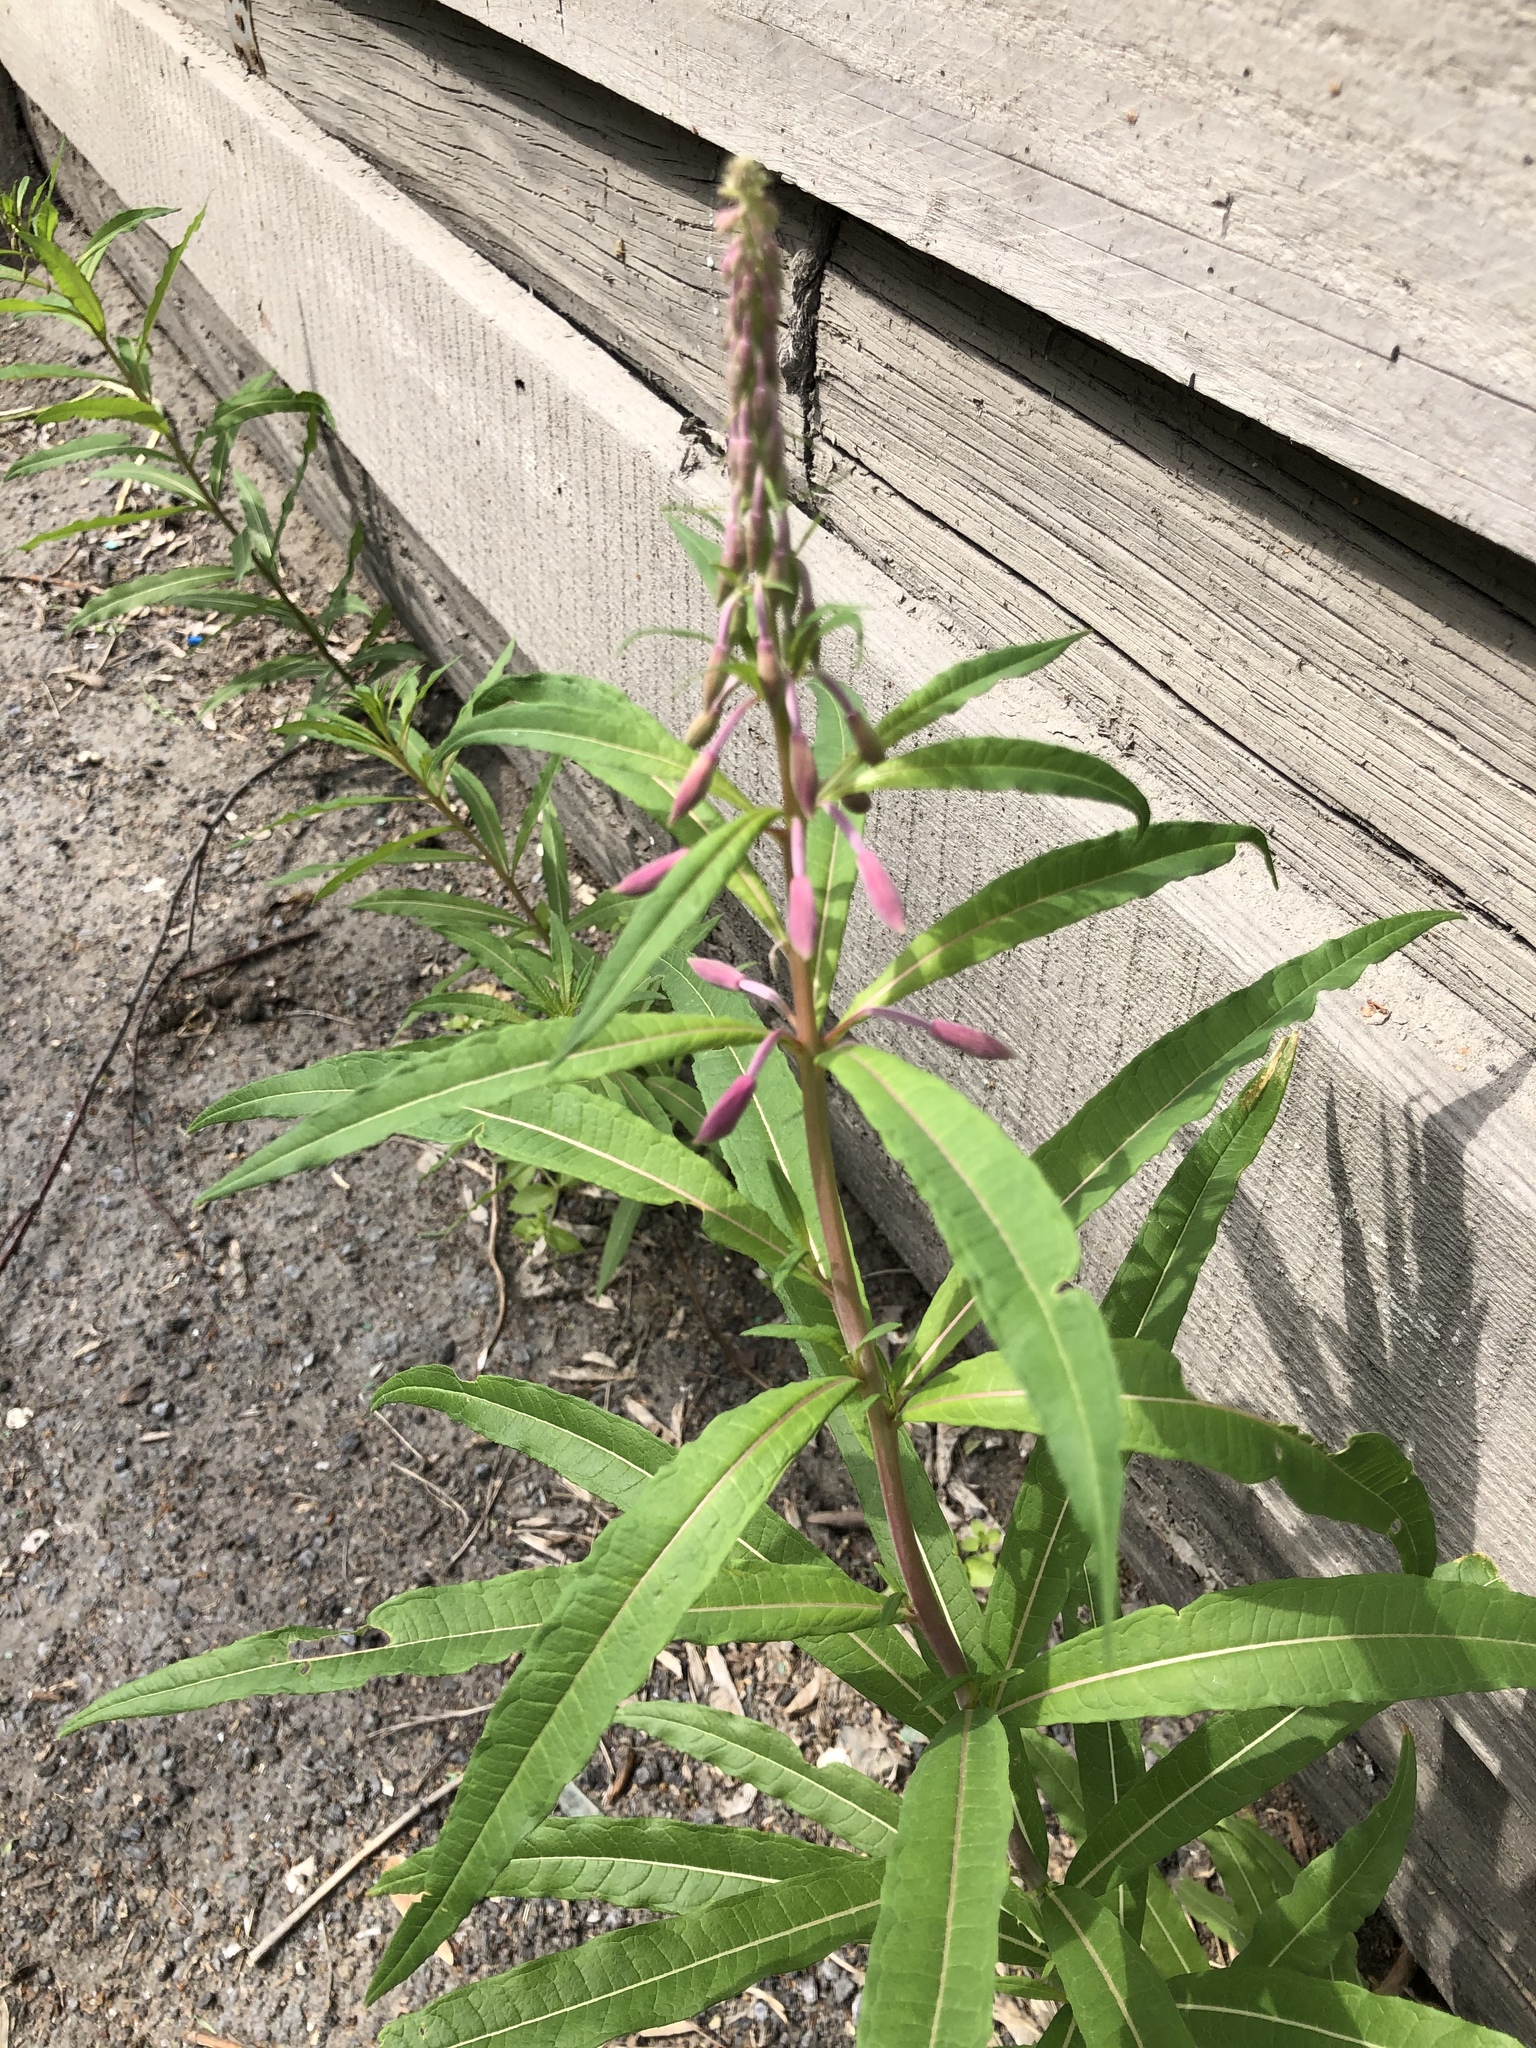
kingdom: Plantae
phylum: Tracheophyta
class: Magnoliopsida
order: Myrtales
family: Onagraceae
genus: Chamaenerion
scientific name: Chamaenerion angustifolium
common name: Fireweed
